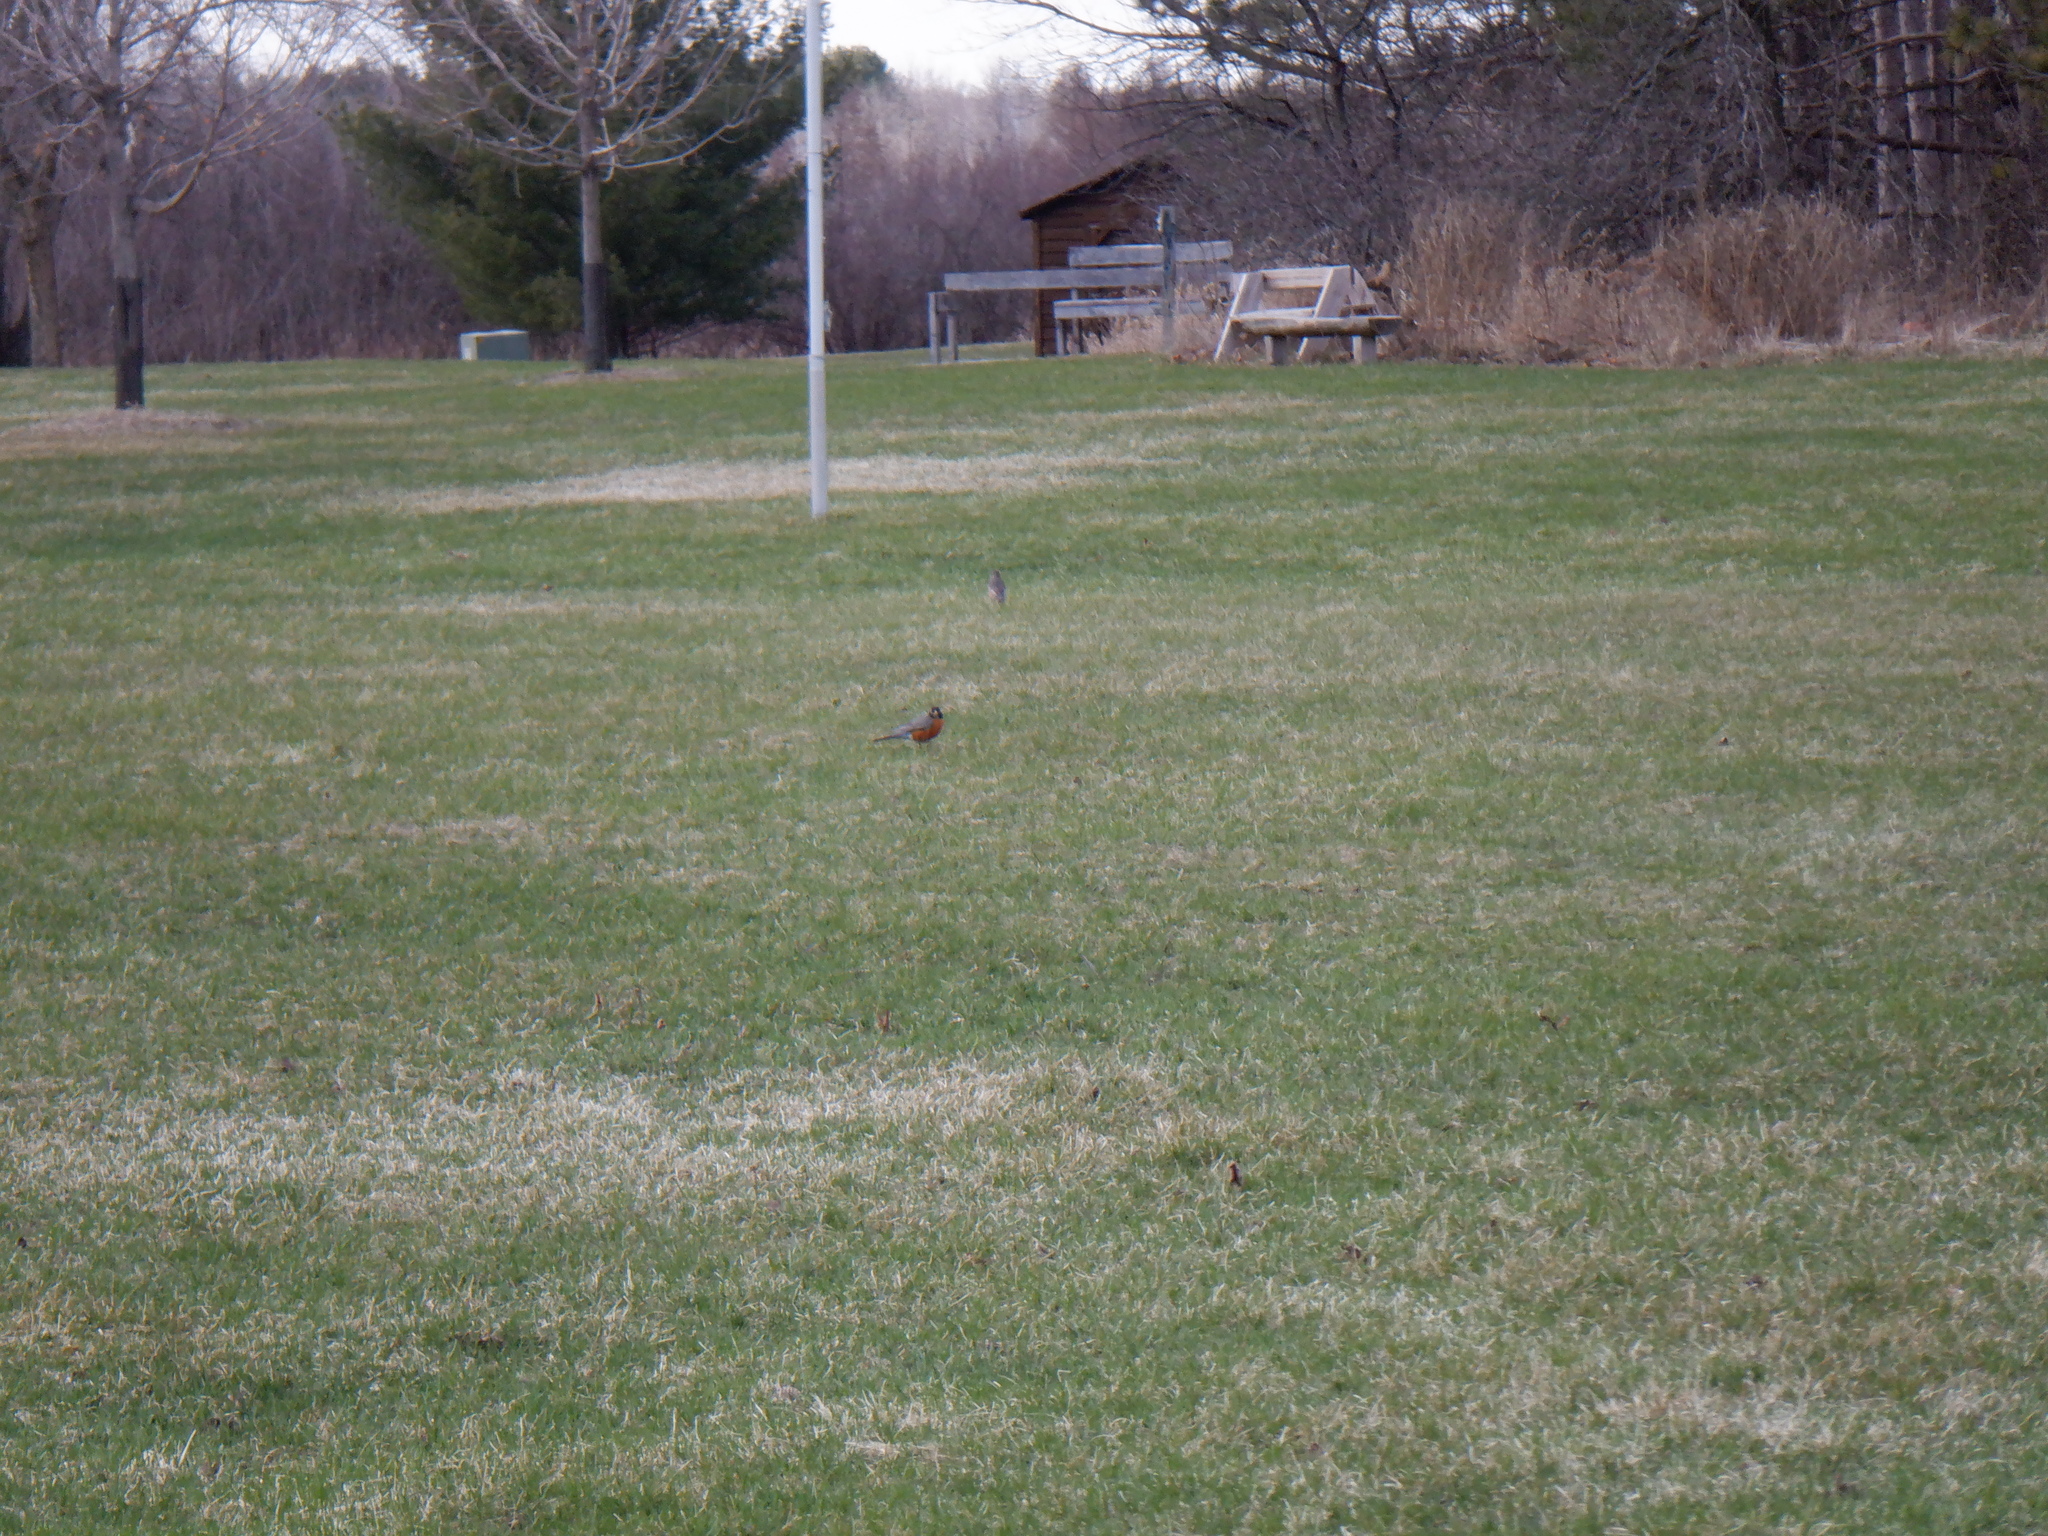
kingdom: Animalia
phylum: Chordata
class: Aves
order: Passeriformes
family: Turdidae
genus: Turdus
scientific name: Turdus migratorius
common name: American robin
